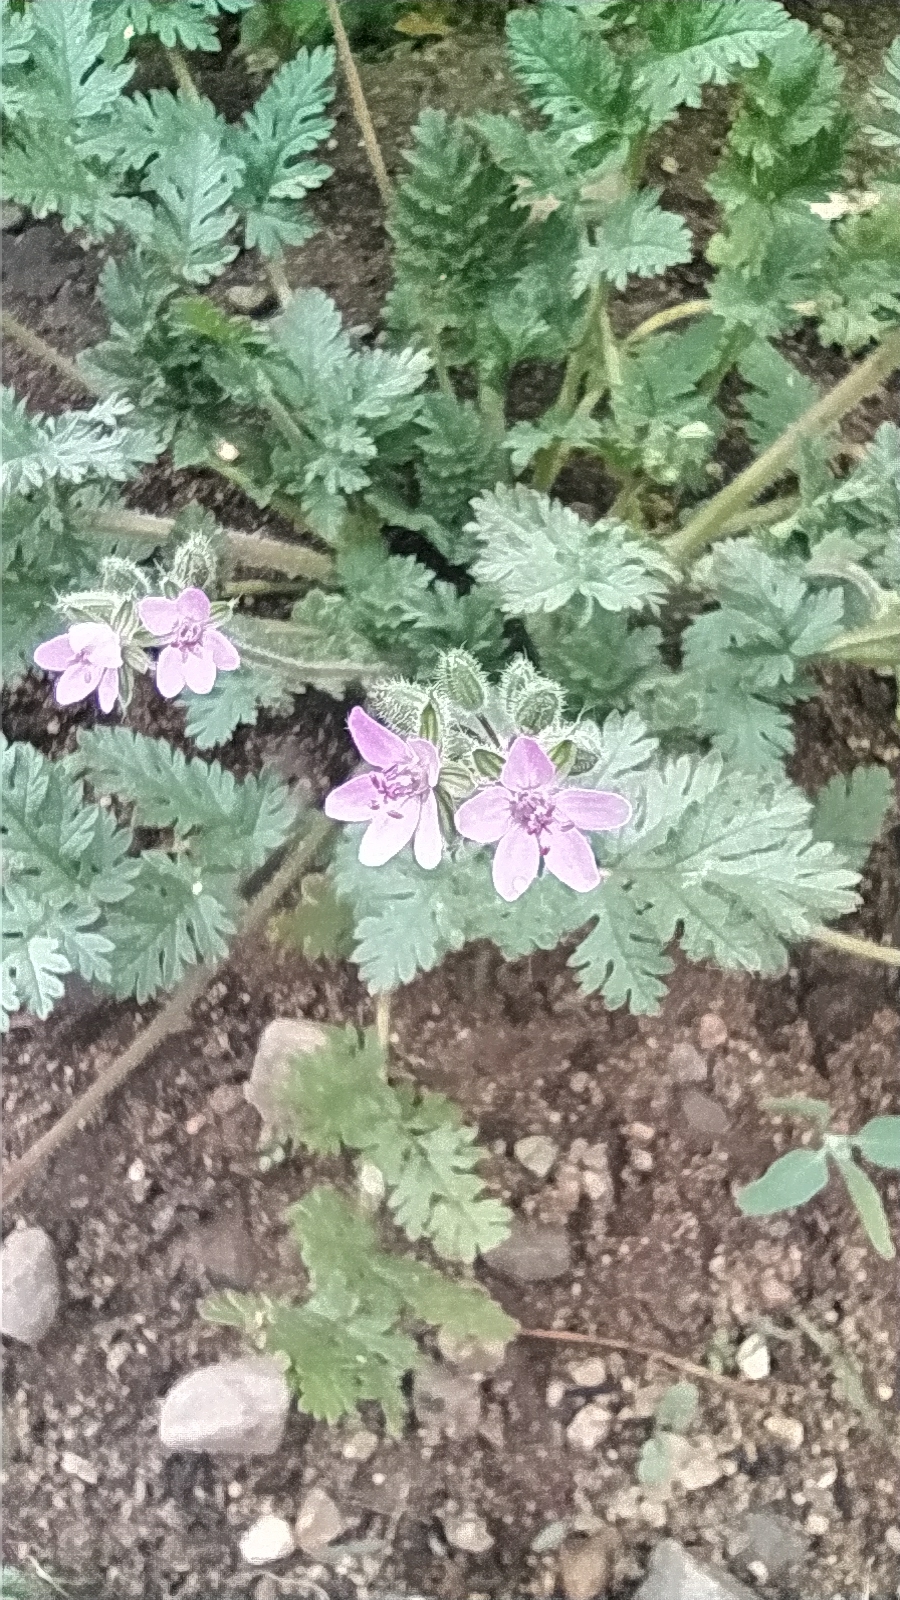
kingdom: Plantae
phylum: Tracheophyta
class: Magnoliopsida
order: Geraniales
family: Geraniaceae
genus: Erodium
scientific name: Erodium cicutarium
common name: Common stork's-bill
